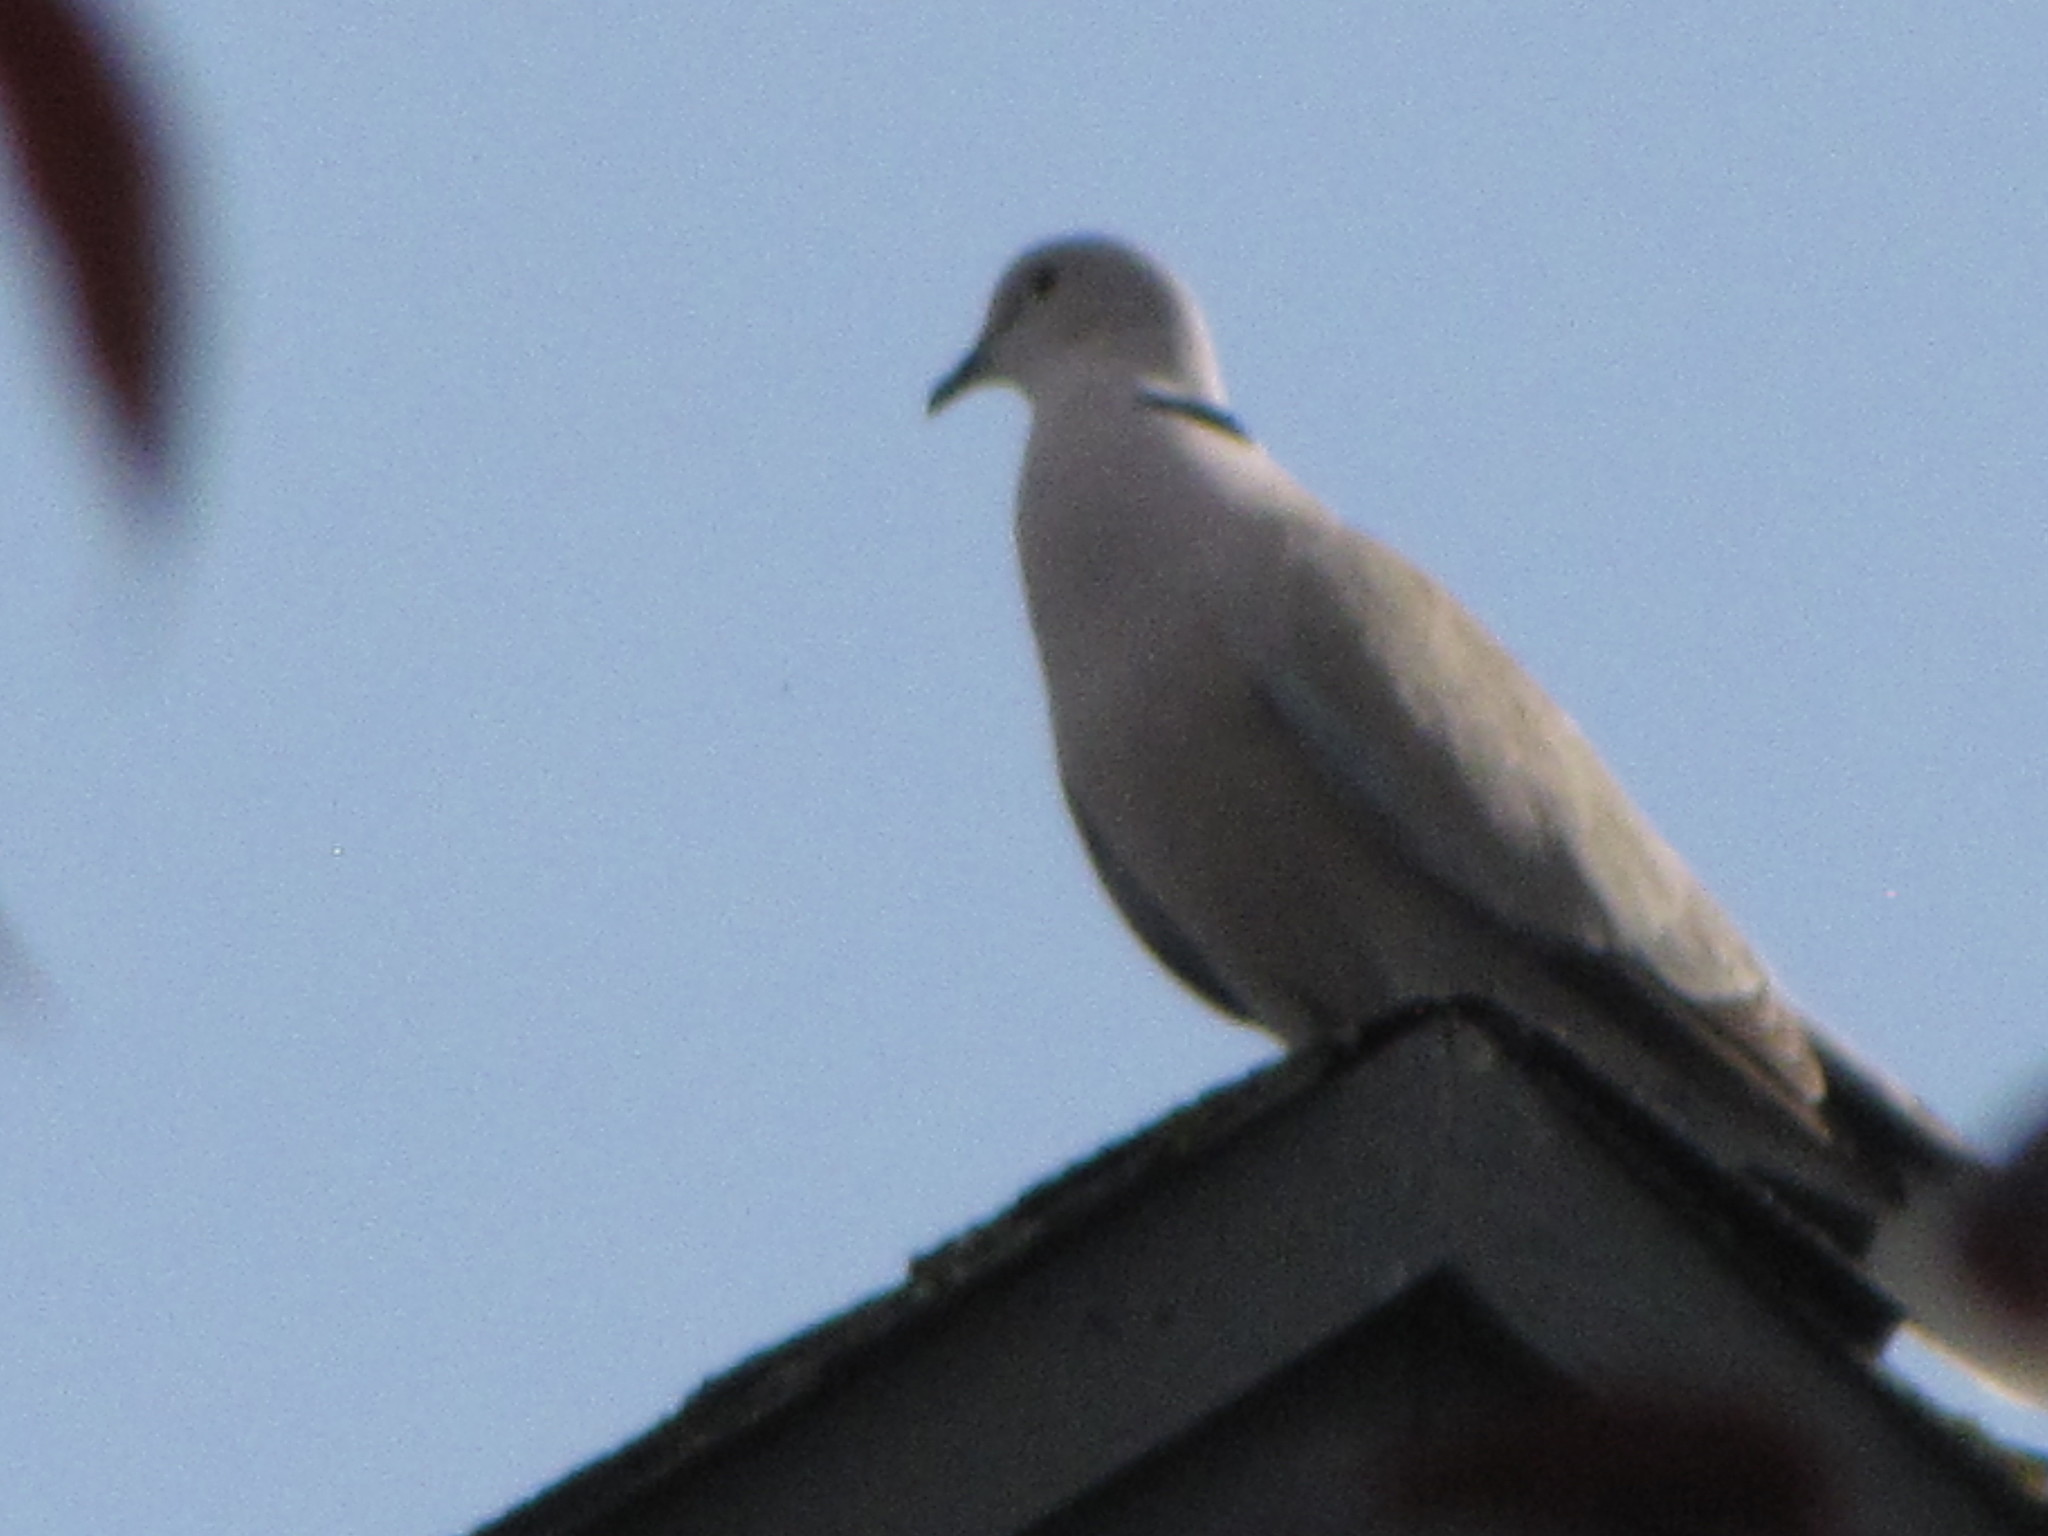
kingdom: Animalia
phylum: Chordata
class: Aves
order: Columbiformes
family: Columbidae
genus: Streptopelia
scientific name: Streptopelia decaocto
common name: Eurasian collared dove
